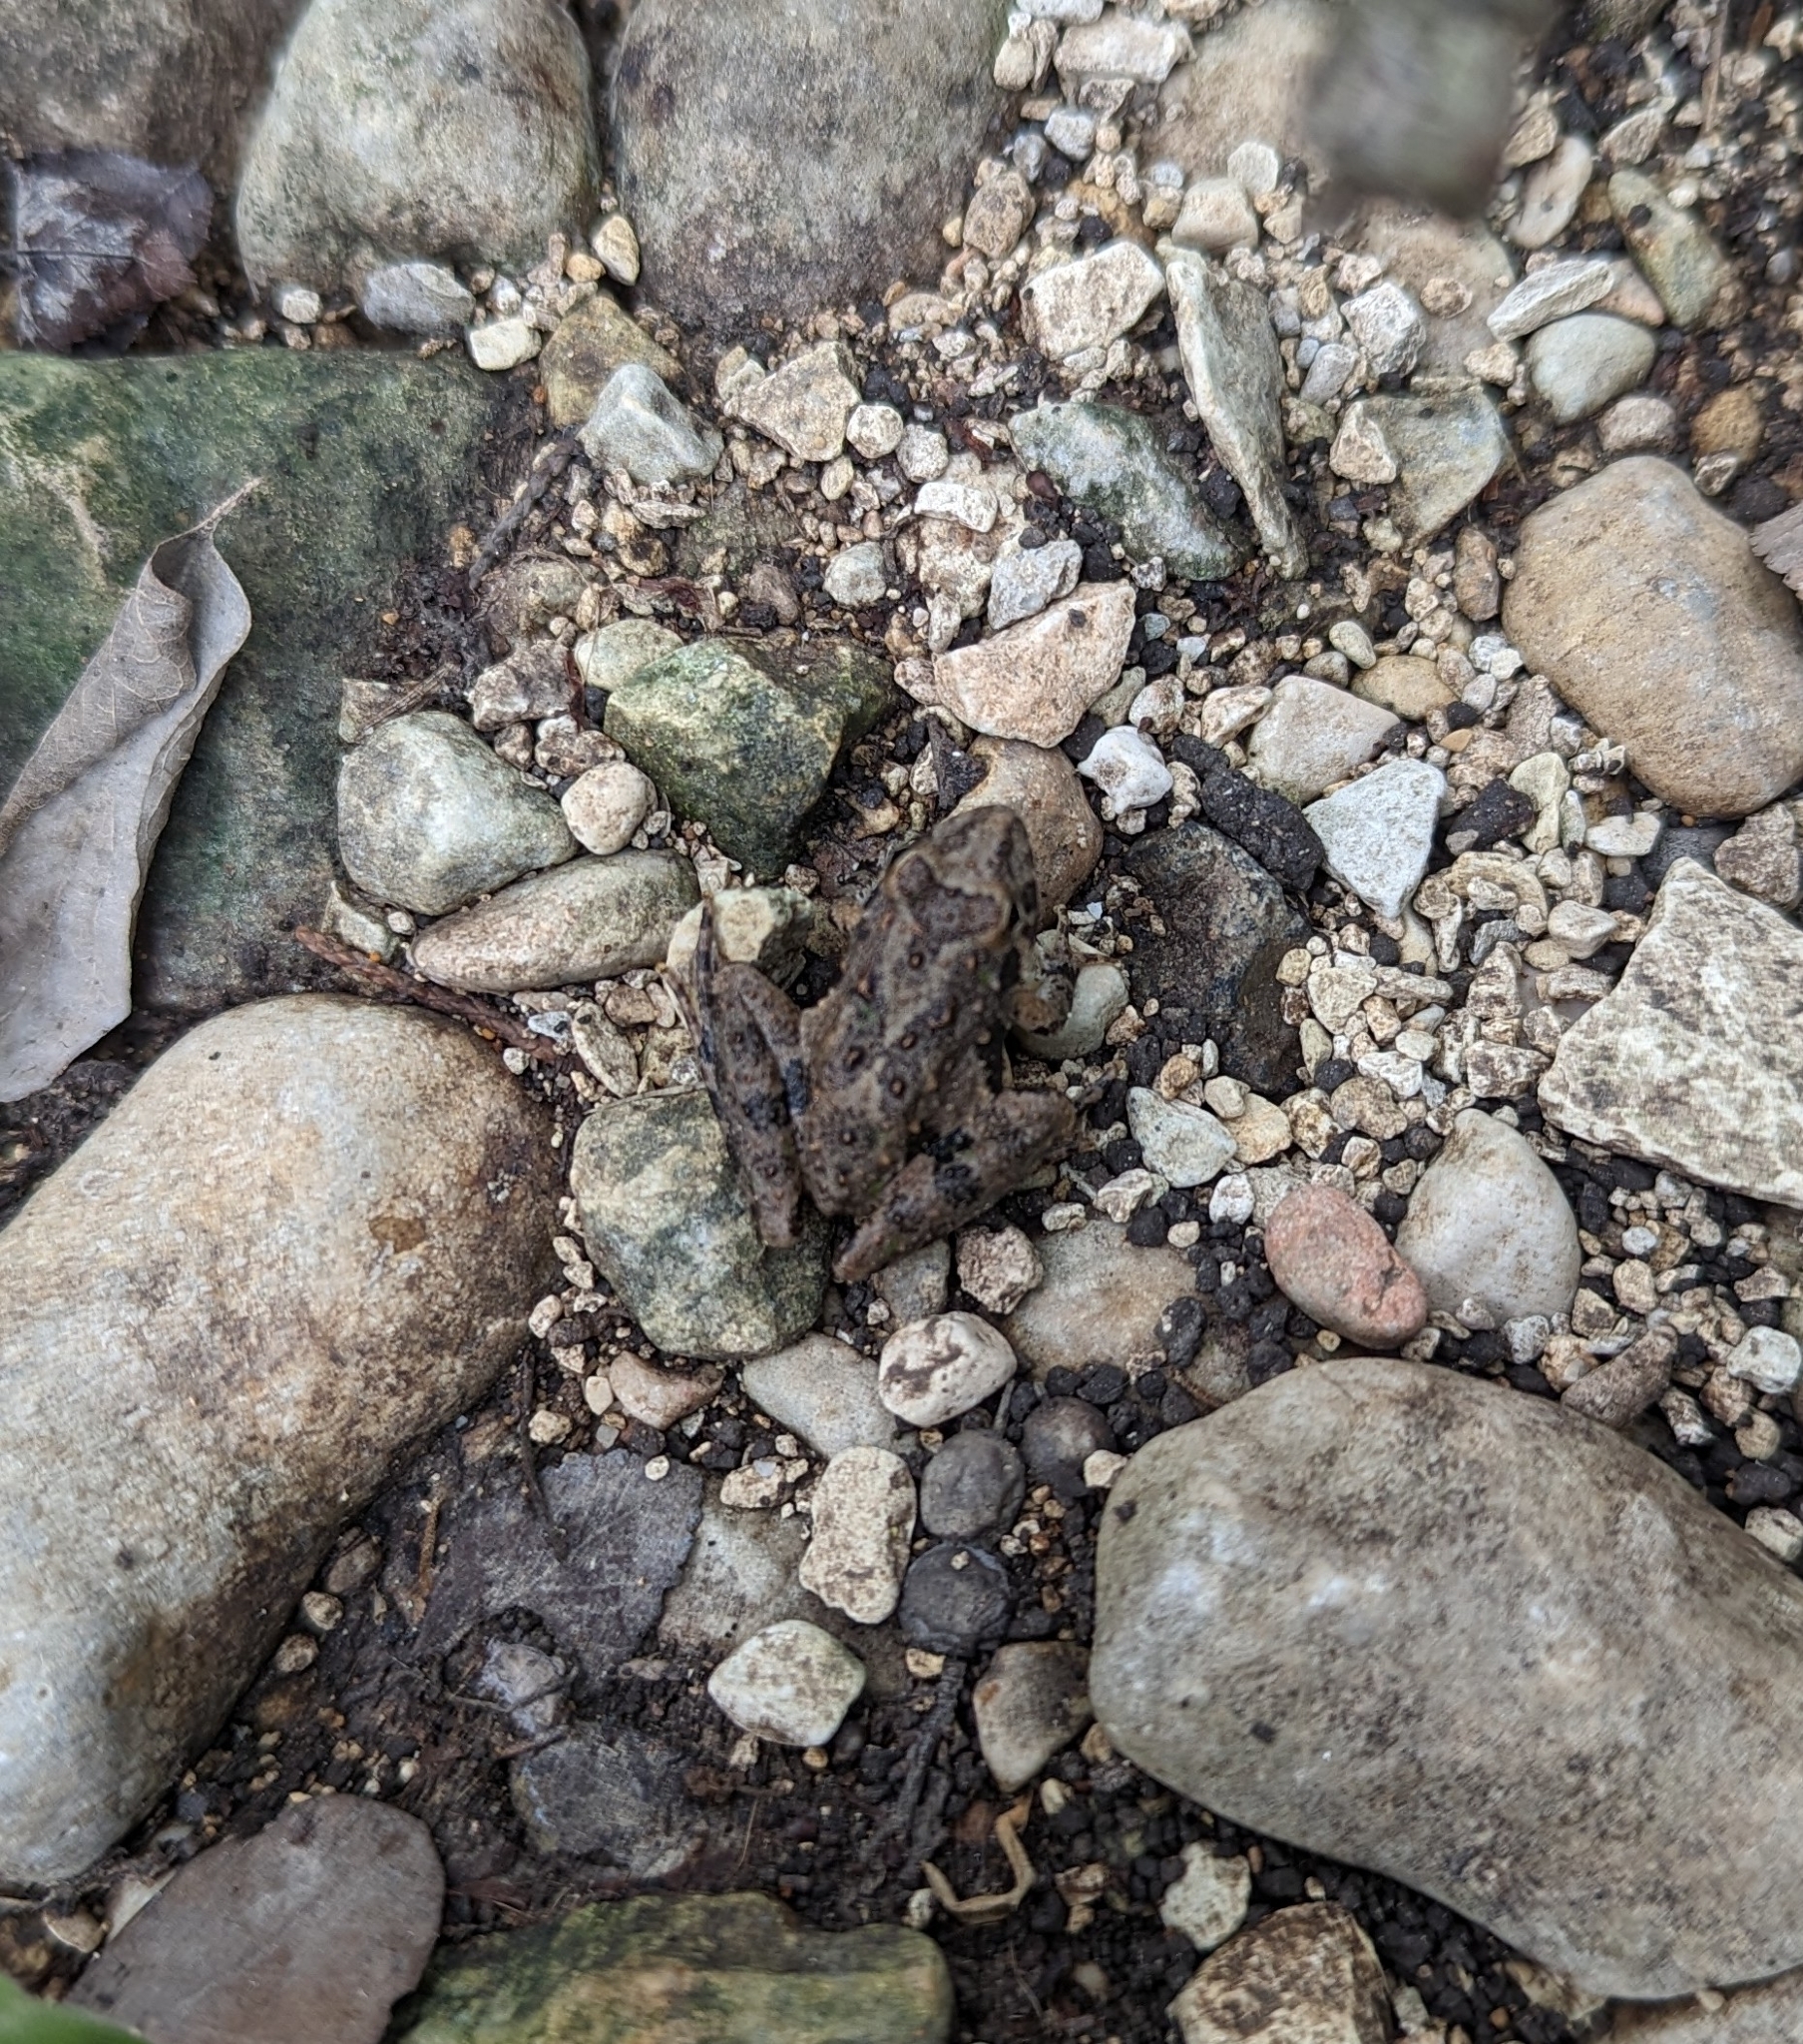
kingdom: Animalia
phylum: Chordata
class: Amphibia
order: Anura
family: Hylidae
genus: Acris
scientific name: Acris blanchardi
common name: Blanchard's cricket frog
